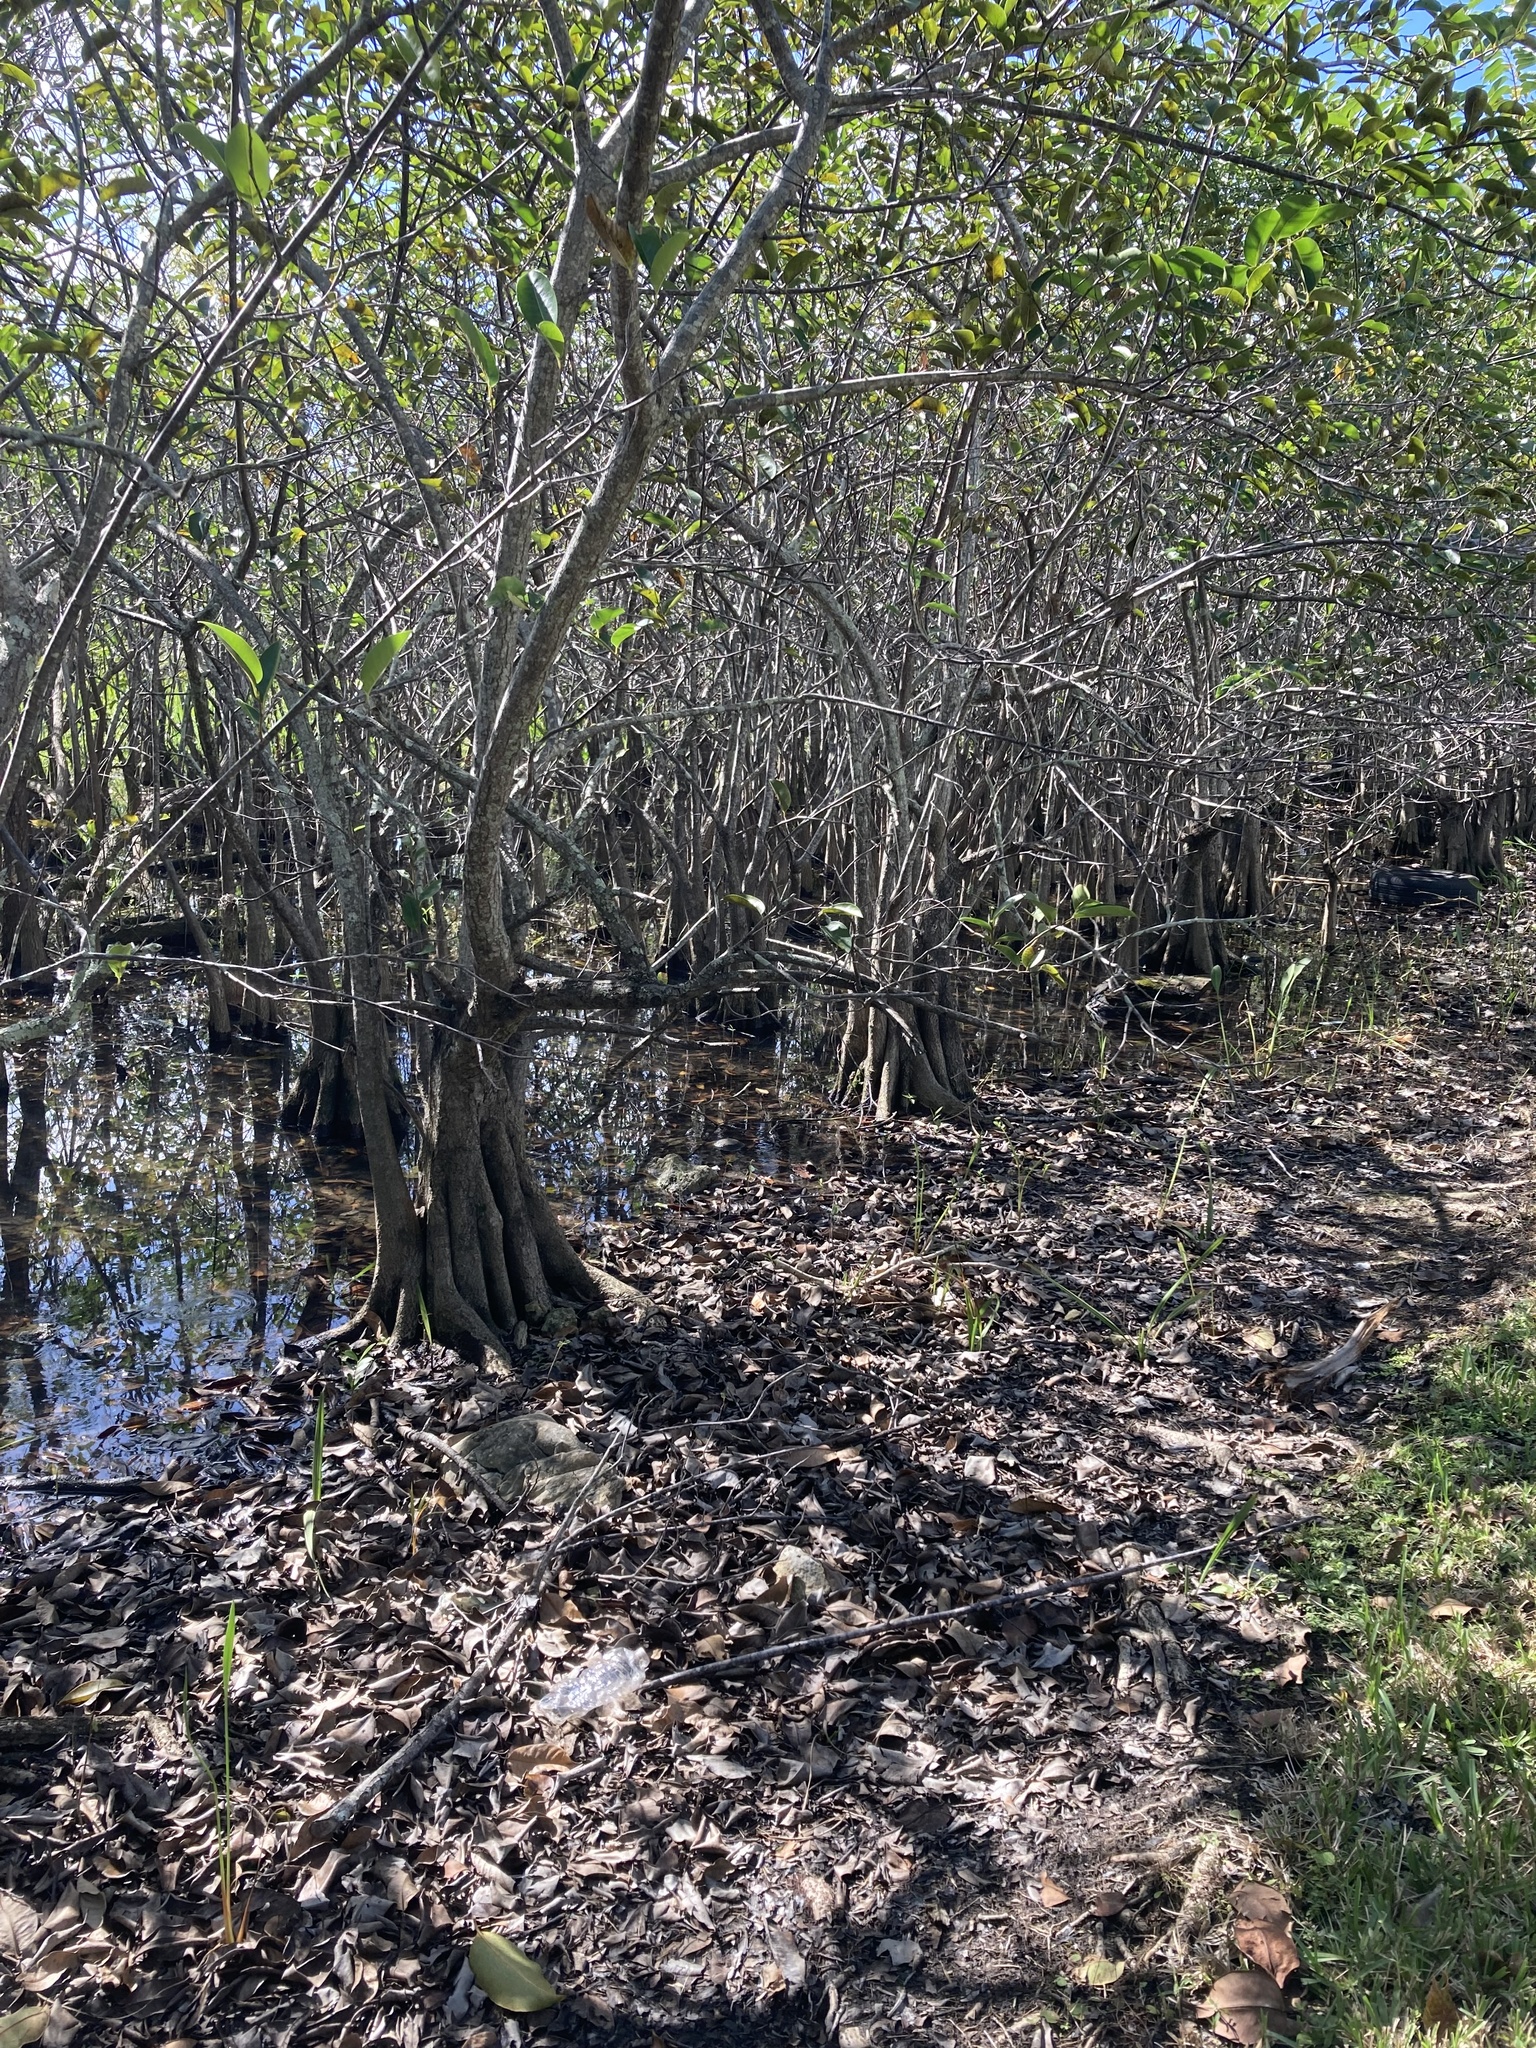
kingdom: Plantae
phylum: Tracheophyta
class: Magnoliopsida
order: Magnoliales
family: Annonaceae
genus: Annona
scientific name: Annona glabra
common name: Monkey apple
